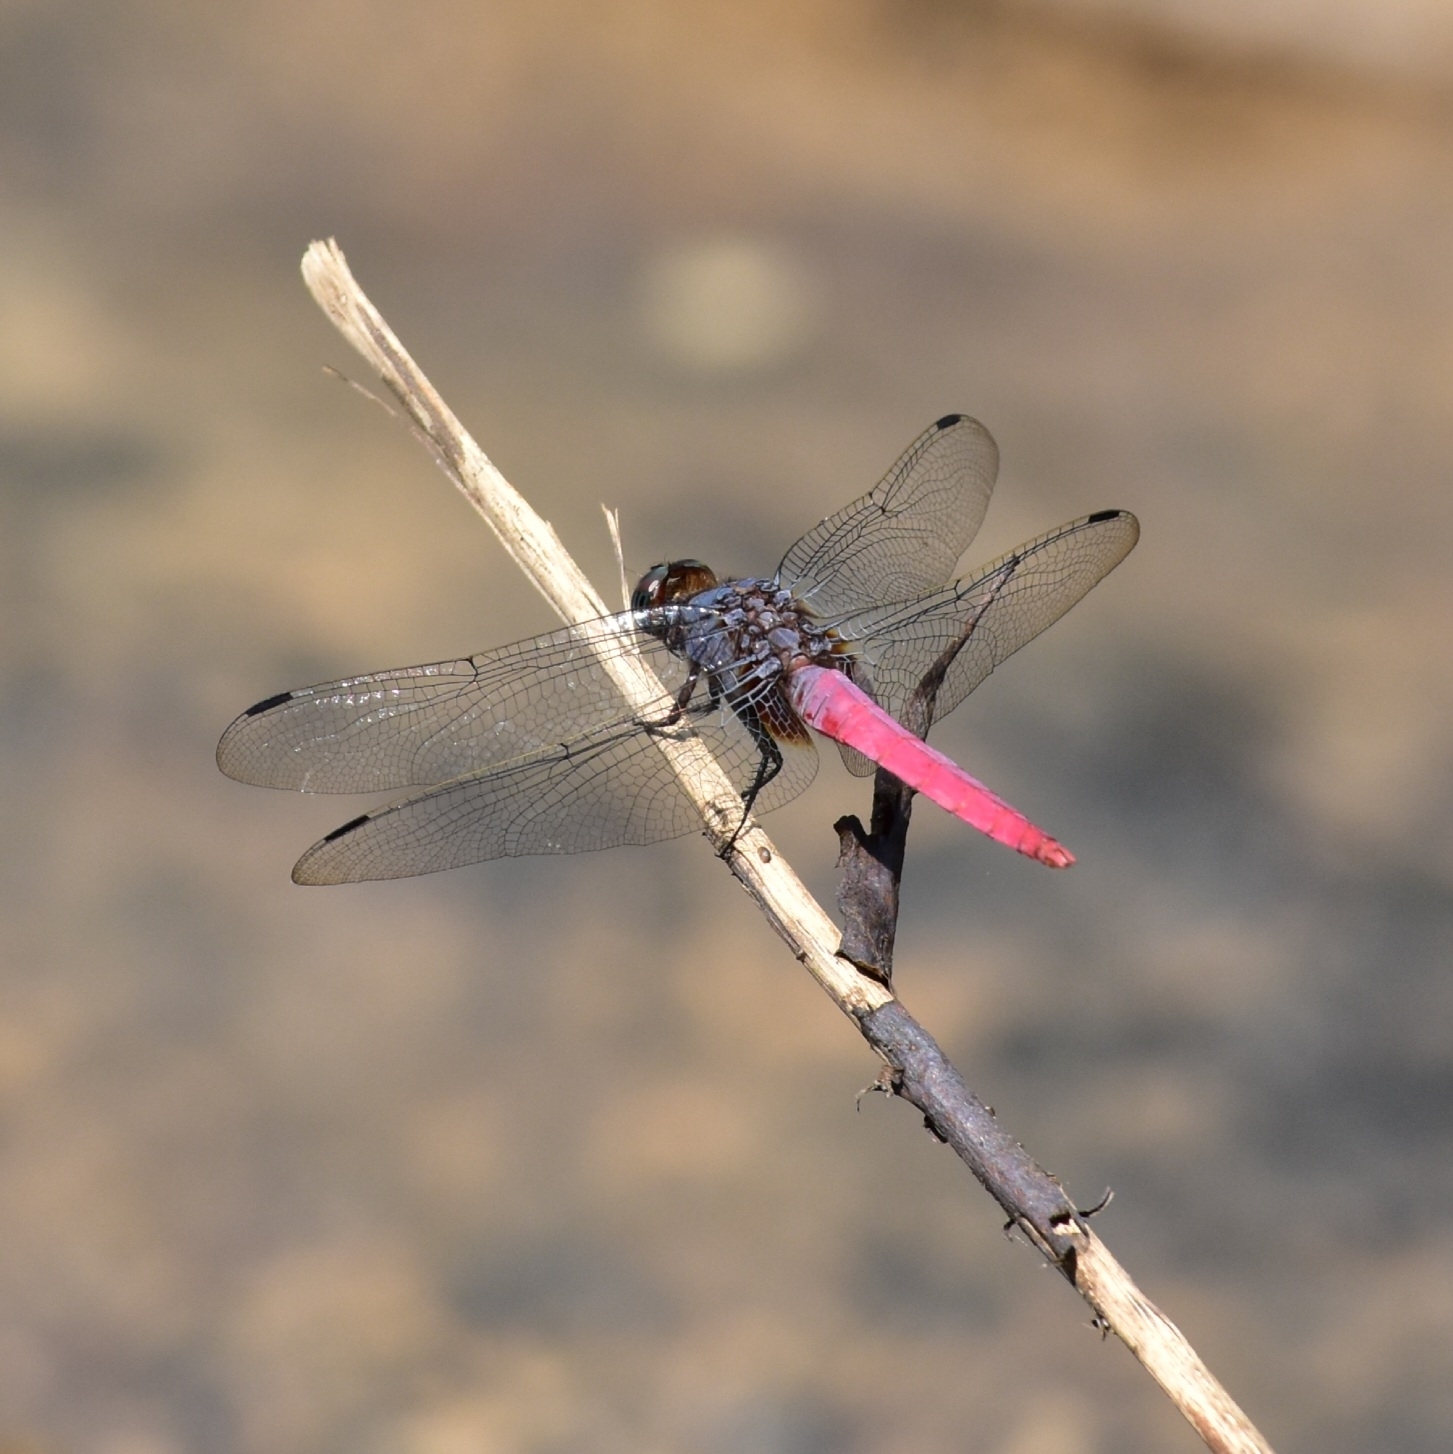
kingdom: Animalia
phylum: Arthropoda
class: Insecta
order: Odonata
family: Libellulidae
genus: Orthetrum
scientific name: Orthetrum pruinosum
